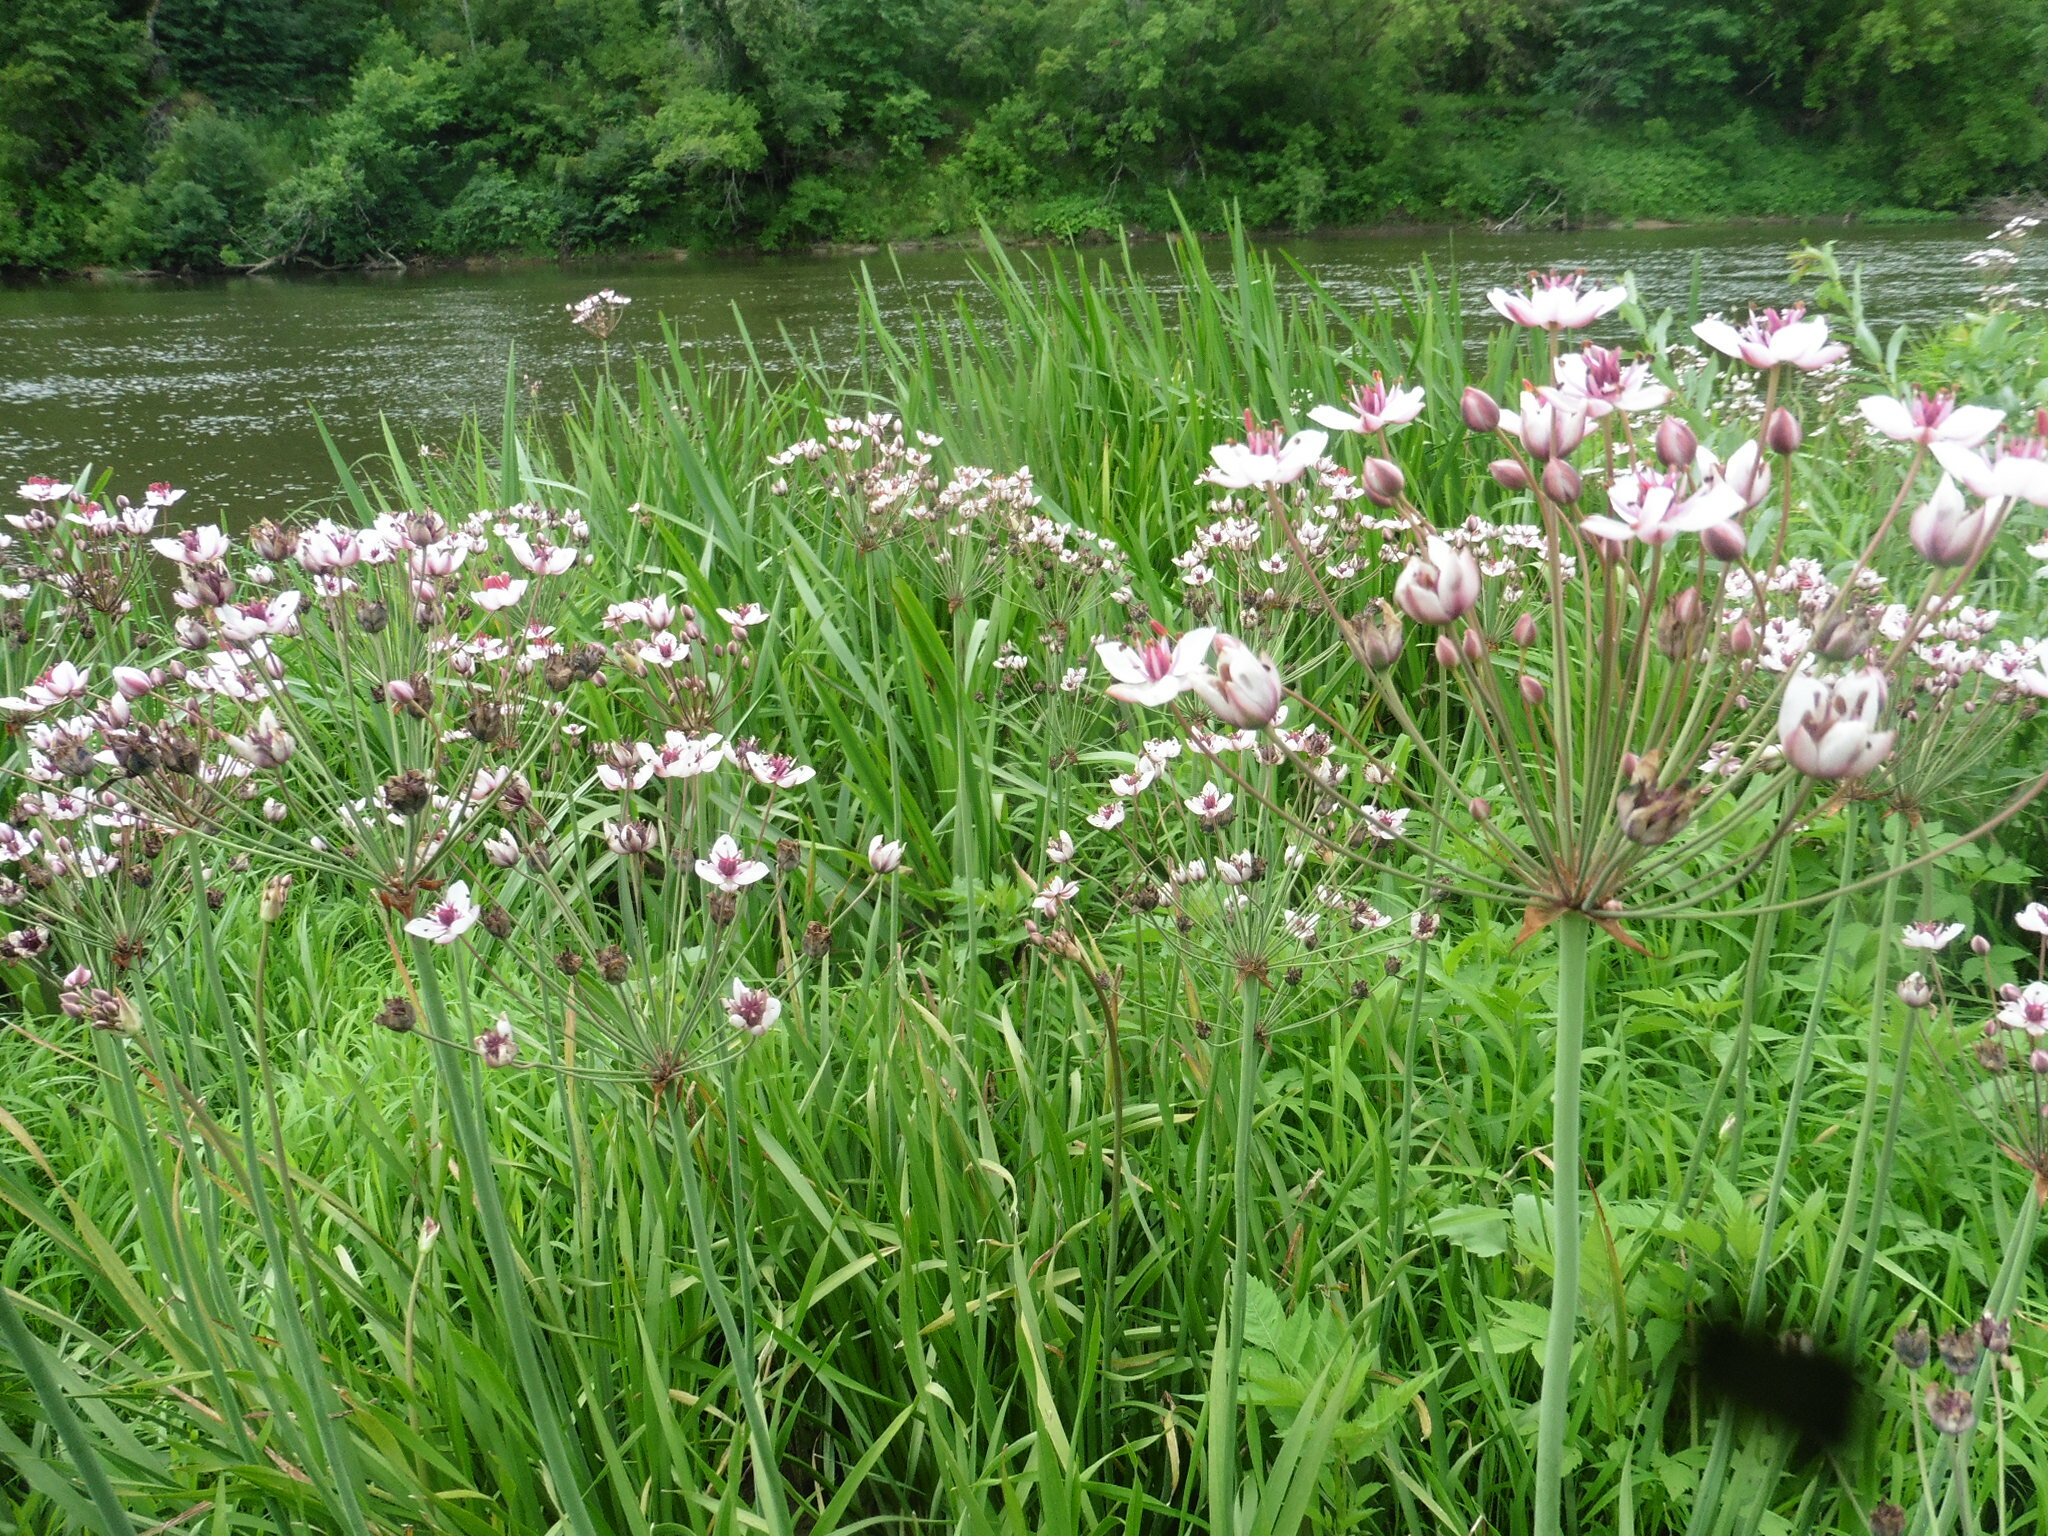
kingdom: Plantae
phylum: Tracheophyta
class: Liliopsida
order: Alismatales
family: Butomaceae
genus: Butomus
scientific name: Butomus umbellatus
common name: Flowering-rush
